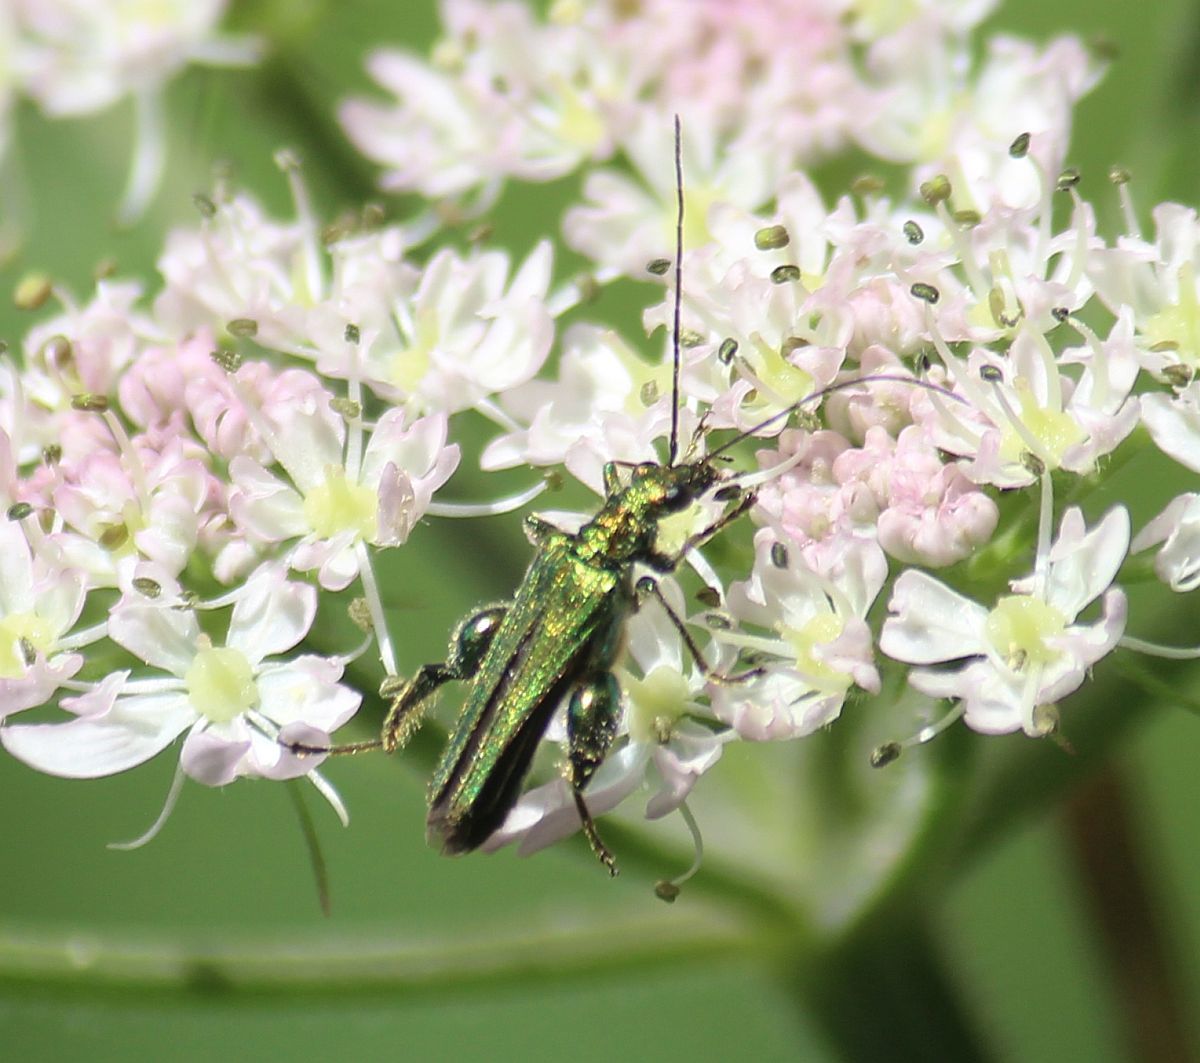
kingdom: Animalia
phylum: Arthropoda
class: Insecta
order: Coleoptera
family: Oedemeridae
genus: Oedemera
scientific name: Oedemera nobilis
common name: Swollen-thighed beetle
